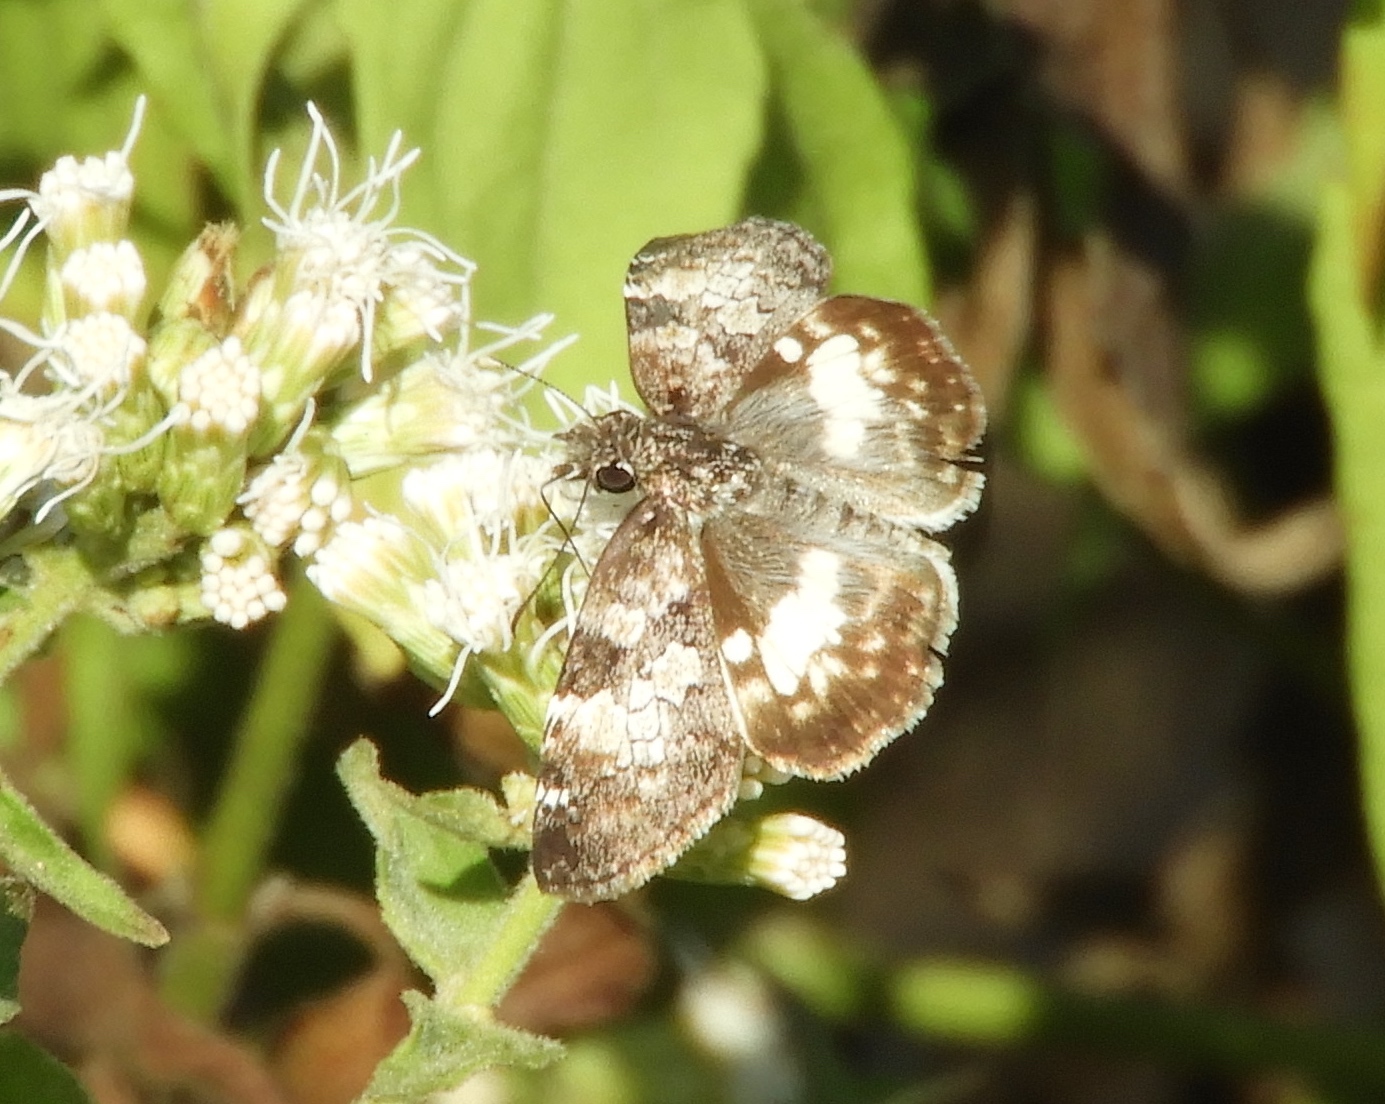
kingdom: Animalia
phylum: Arthropoda
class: Insecta
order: Lepidoptera
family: Hesperiidae
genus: Chiothion
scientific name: Chiothion georgina
